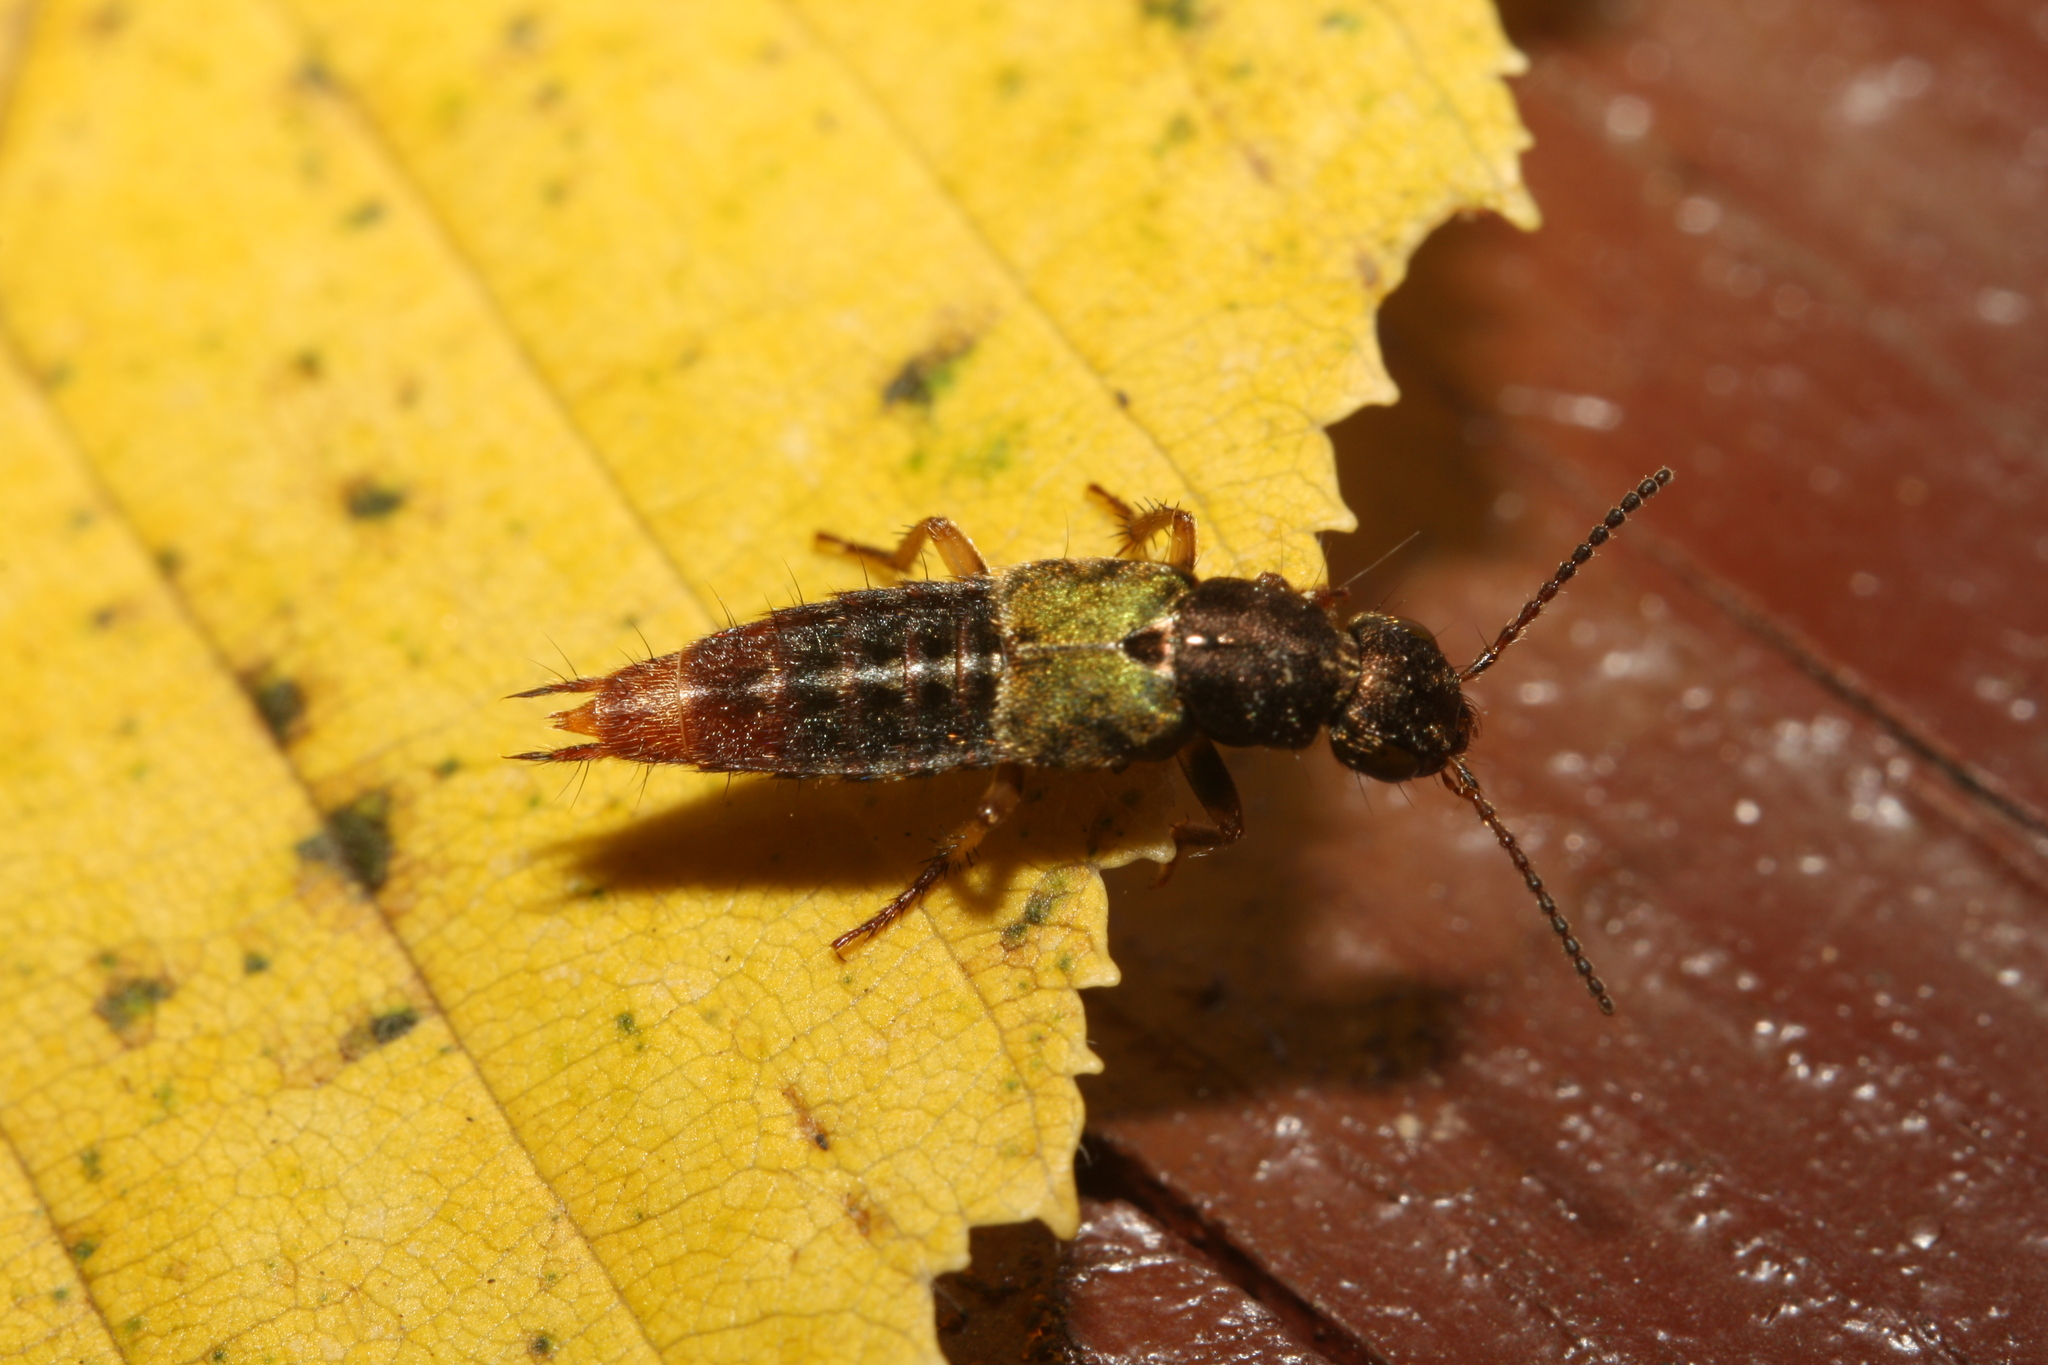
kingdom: Animalia
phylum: Arthropoda
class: Insecta
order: Coleoptera
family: Staphylinidae
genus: Abemus
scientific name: Abemus chloropterus
